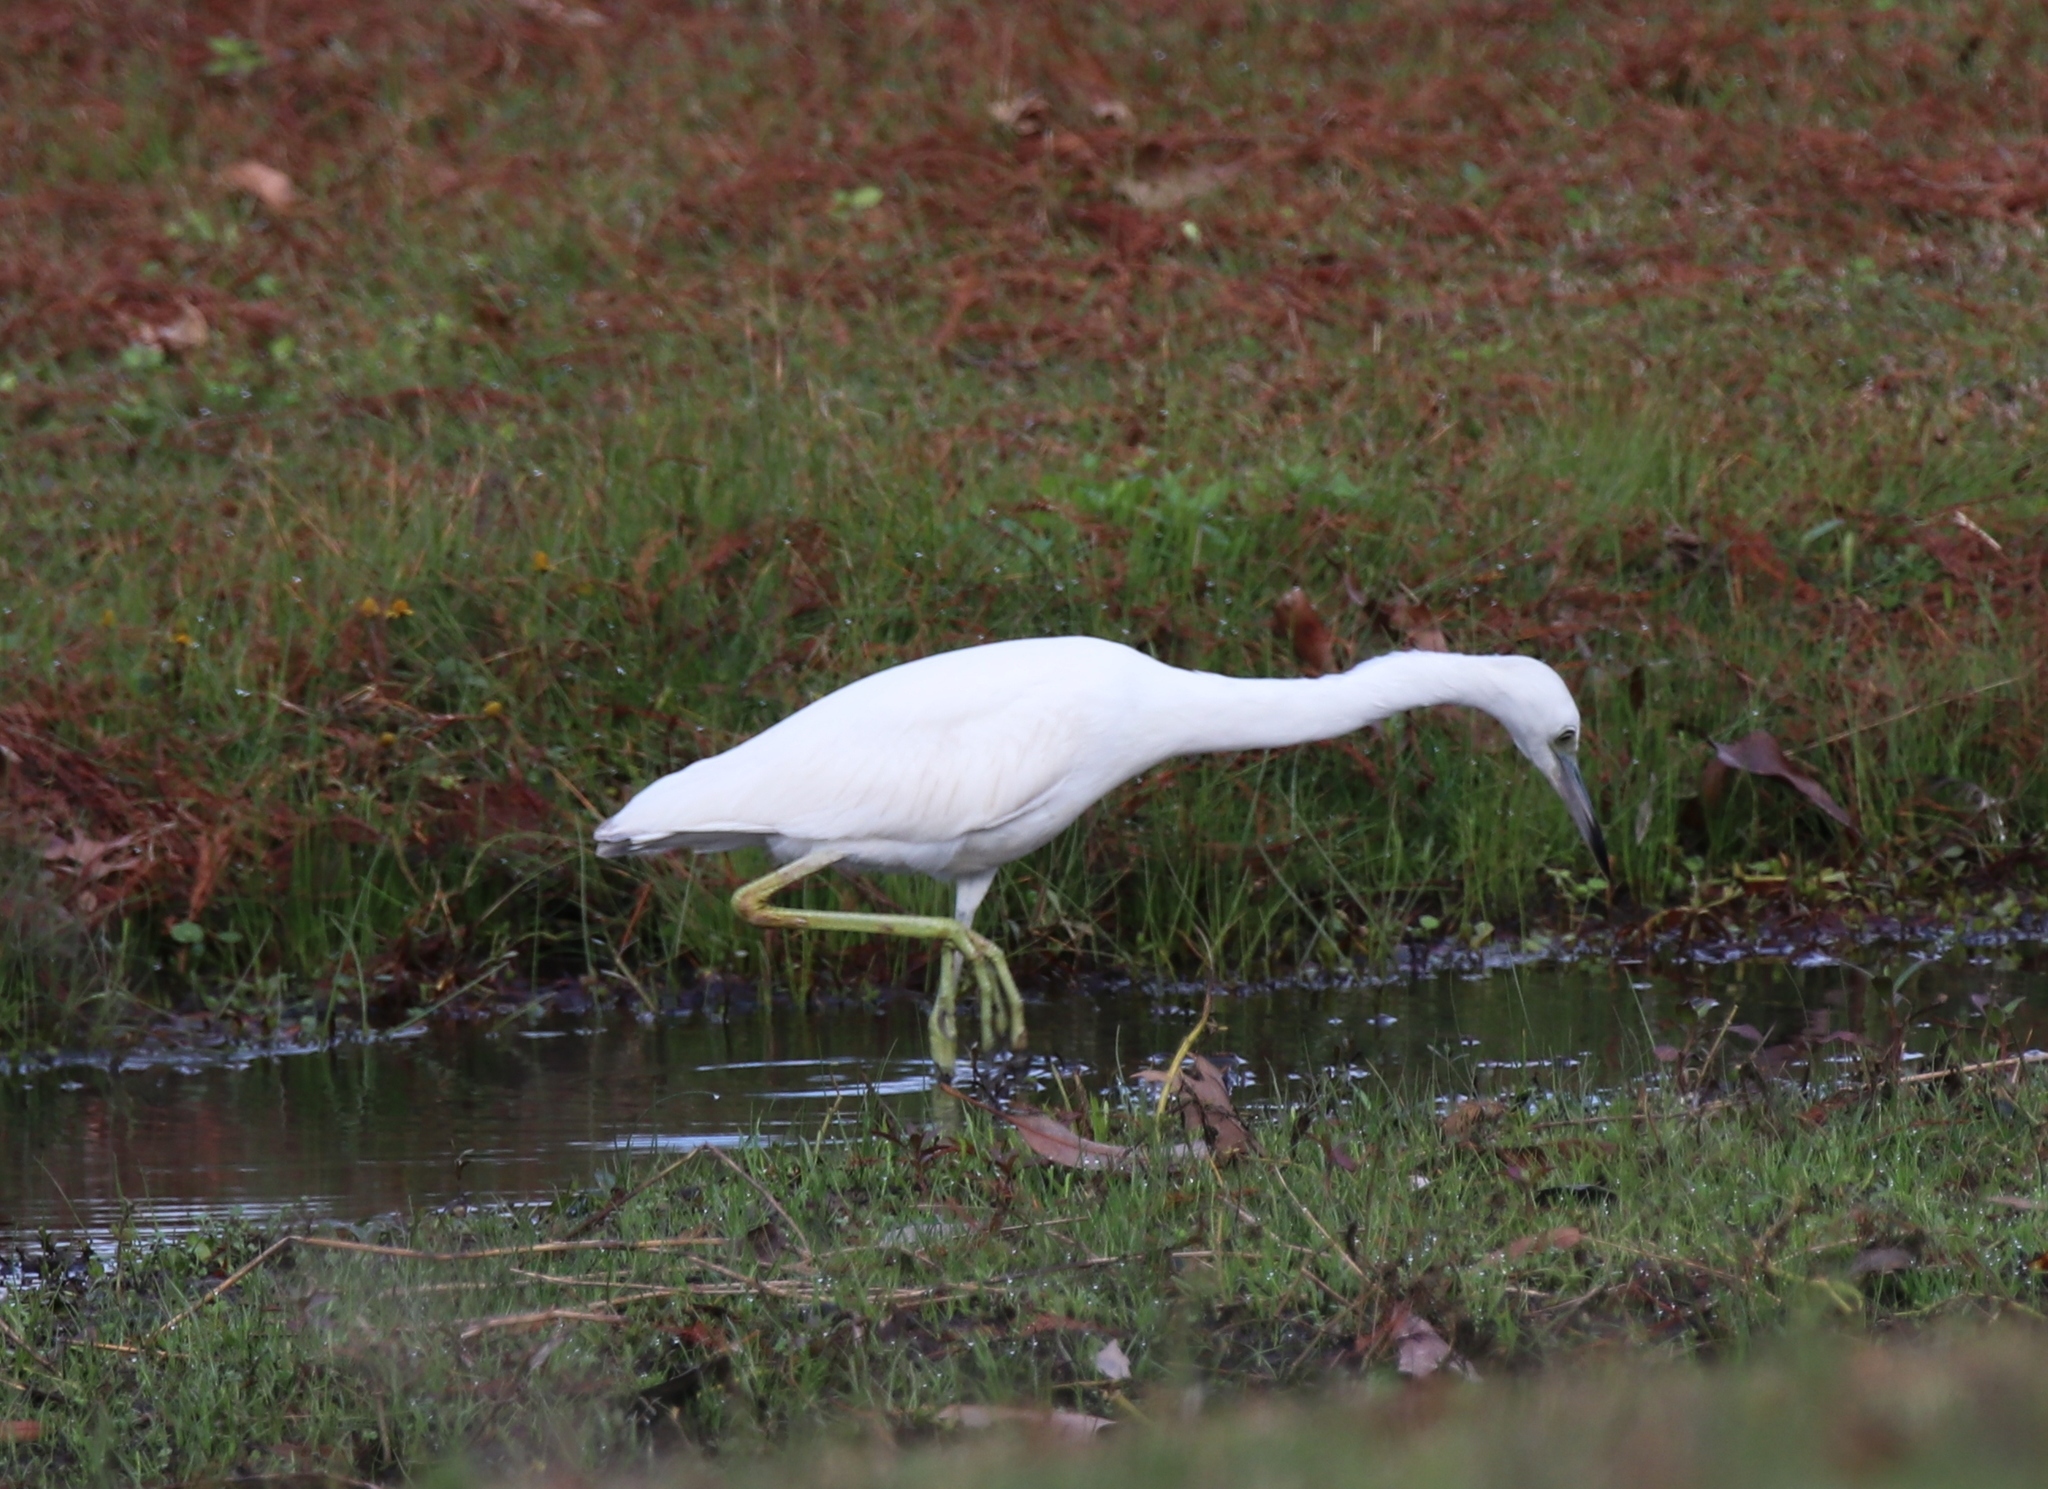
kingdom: Animalia
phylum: Chordata
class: Aves
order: Pelecaniformes
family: Ardeidae
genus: Egretta
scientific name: Egretta caerulea
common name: Little blue heron
